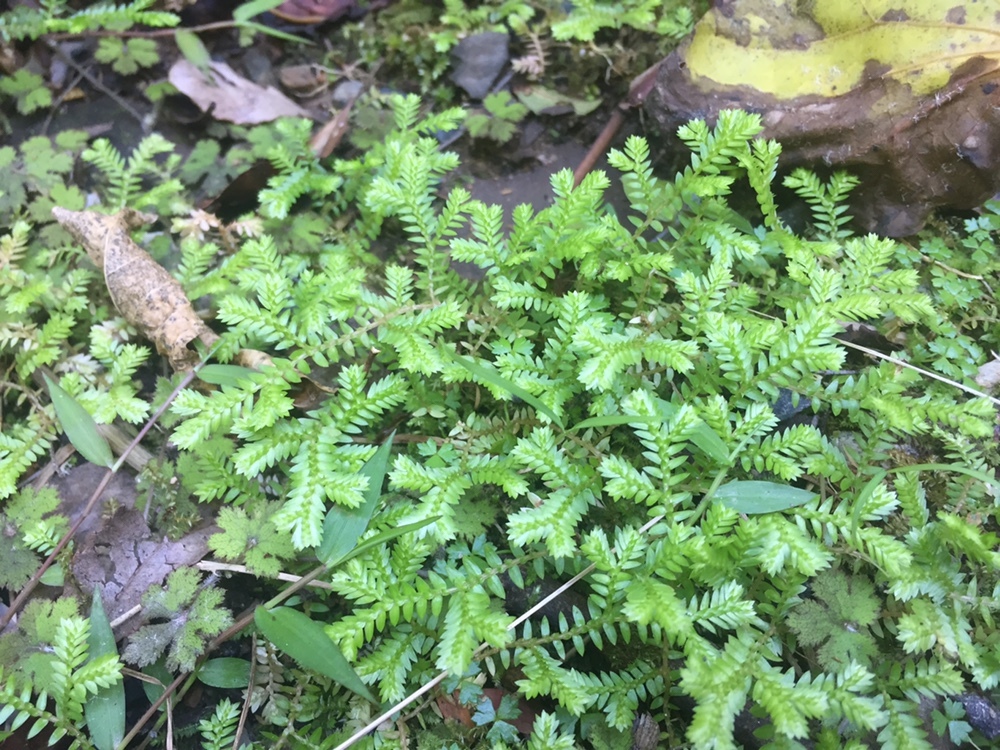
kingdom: Plantae
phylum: Tracheophyta
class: Lycopodiopsida
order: Selaginellales
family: Selaginellaceae
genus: Selaginella
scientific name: Selaginella kraussiana
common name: Krauss' spikemoss
